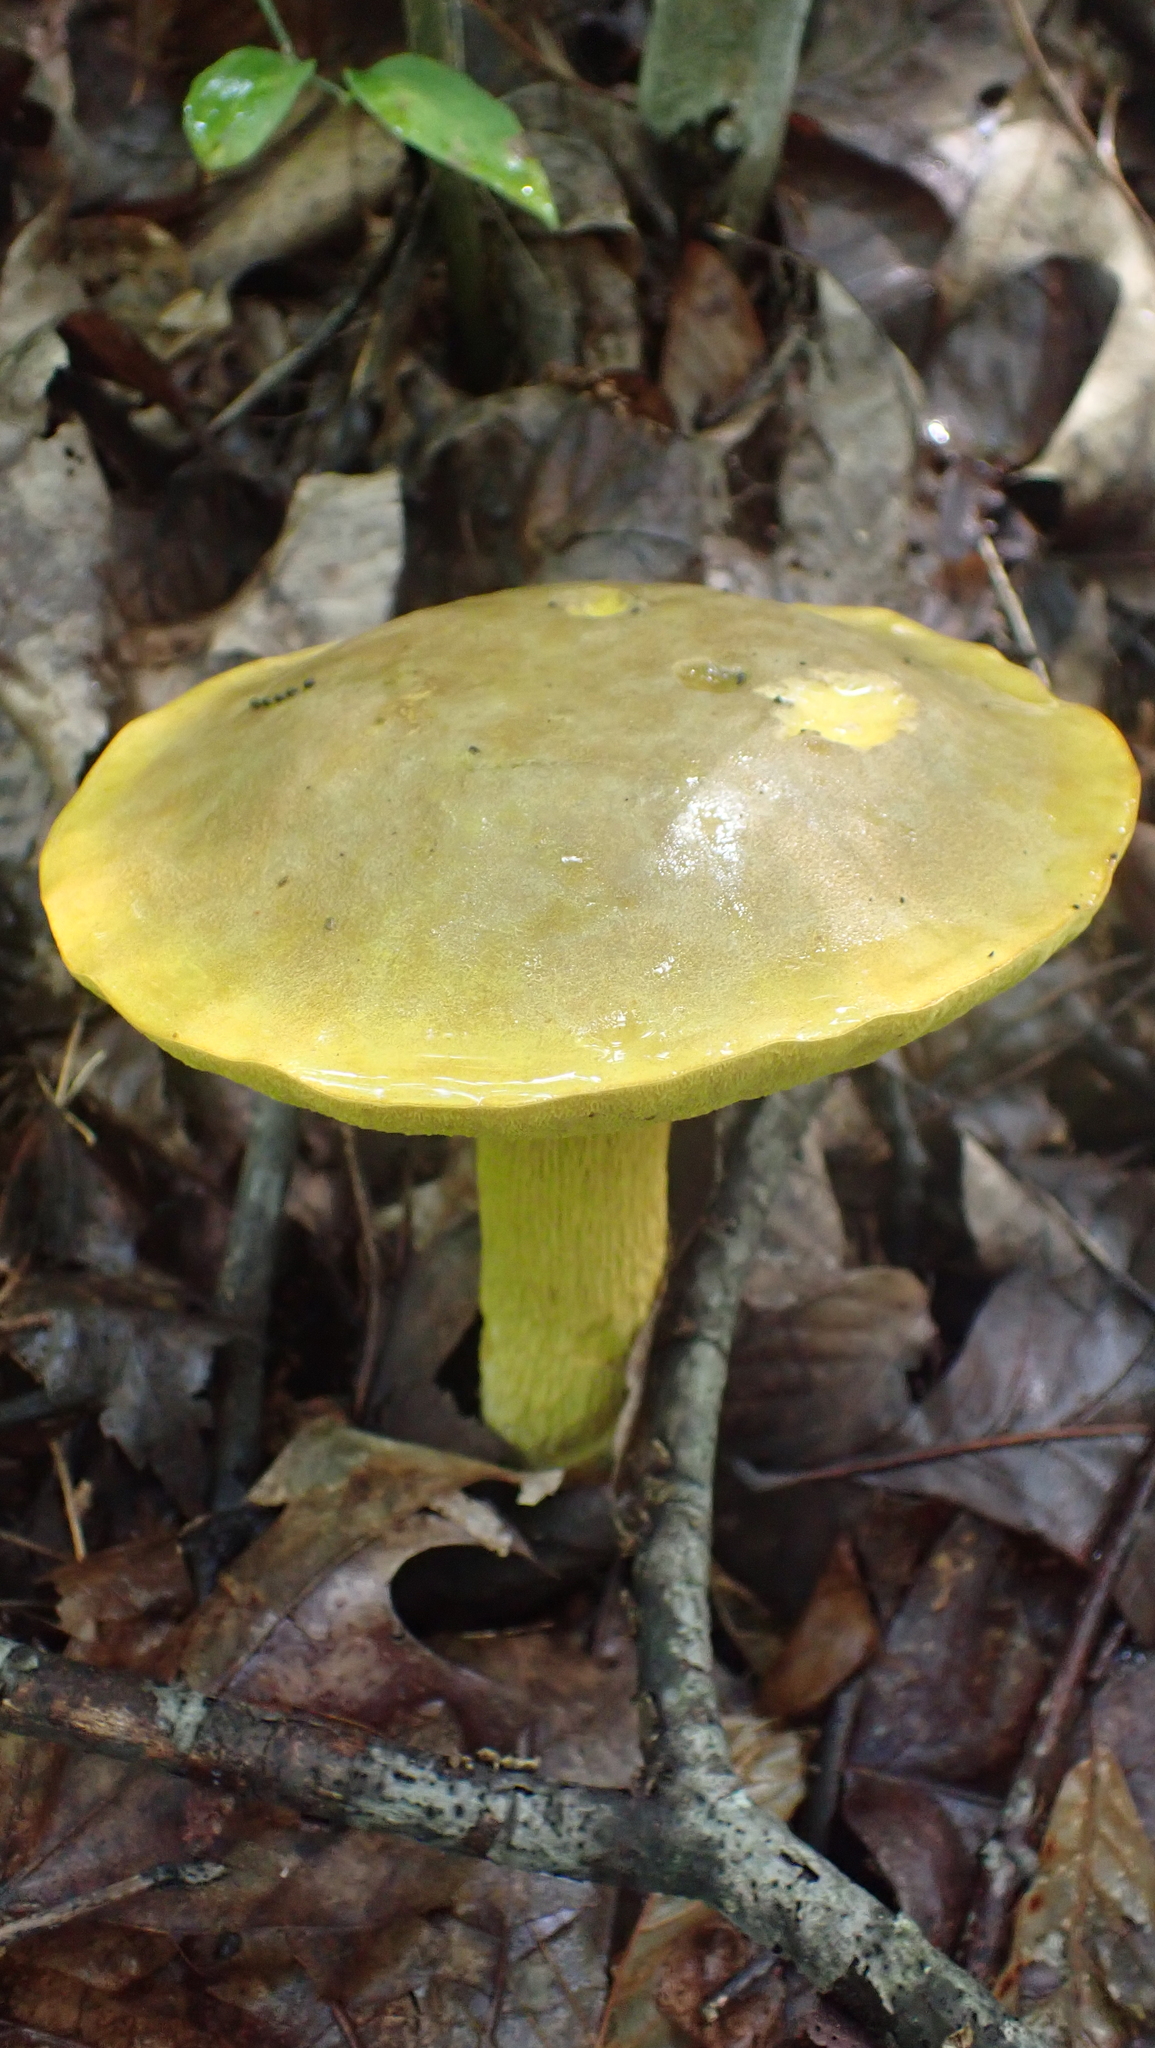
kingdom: Fungi
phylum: Basidiomycota
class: Agaricomycetes
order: Boletales
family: Boletaceae
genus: Retiboletus
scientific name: Retiboletus ornatipes
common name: Ornate-stalked bolete
